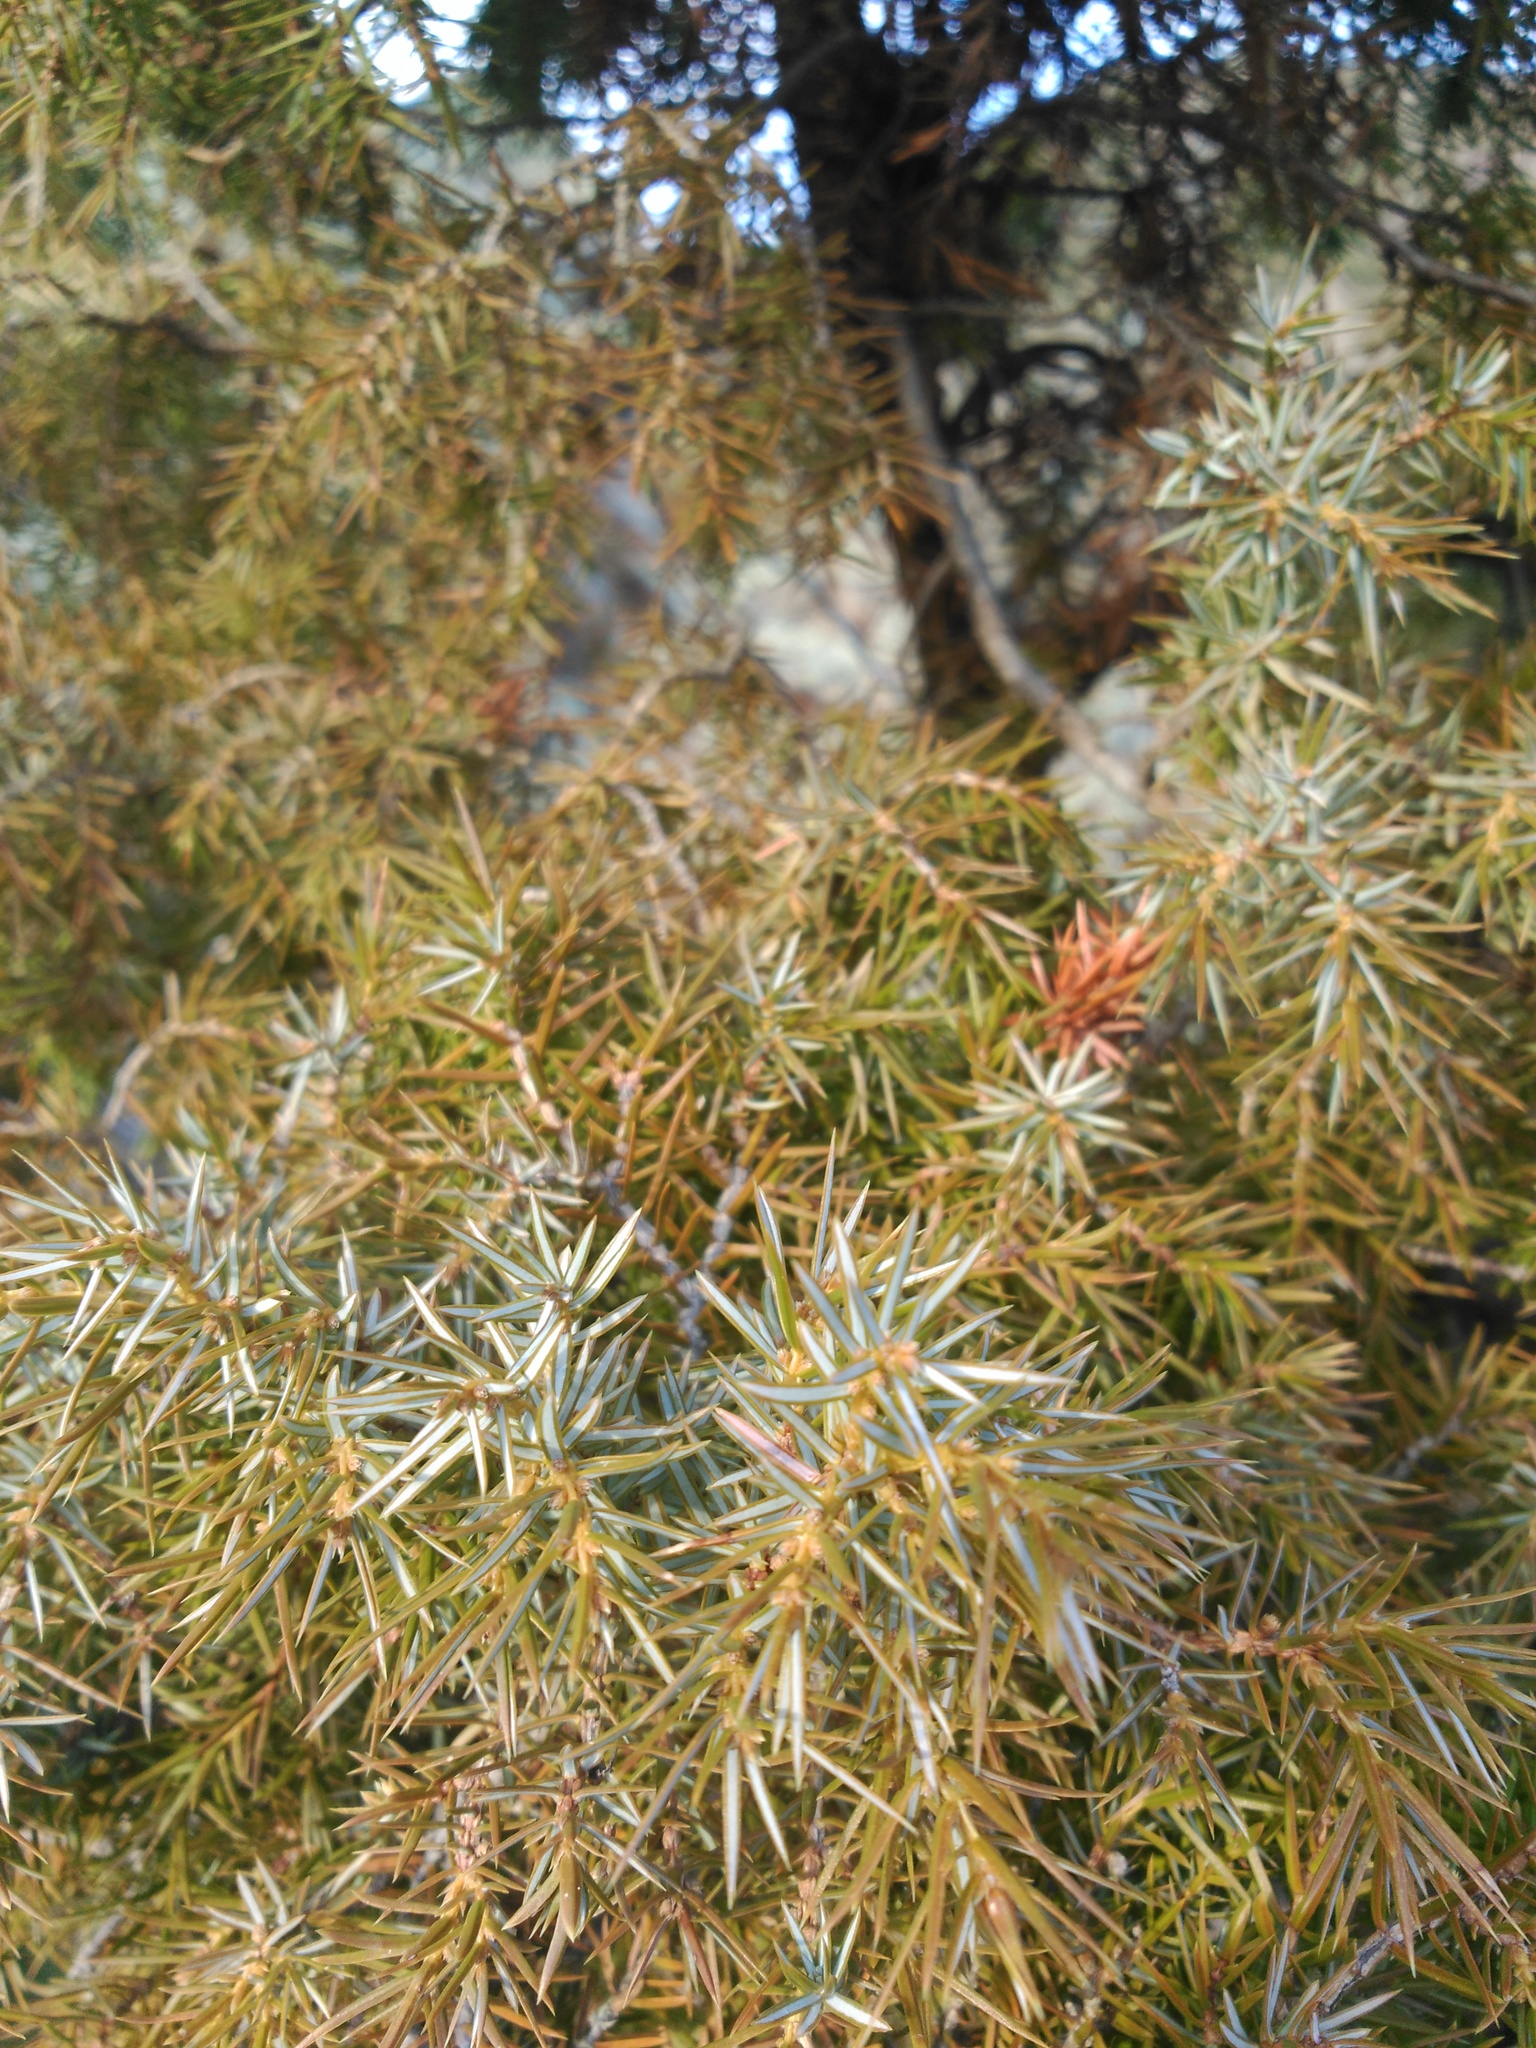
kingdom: Plantae
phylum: Tracheophyta
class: Pinopsida
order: Pinales
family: Cupressaceae
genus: Juniperus
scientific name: Juniperus communis
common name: Common juniper
